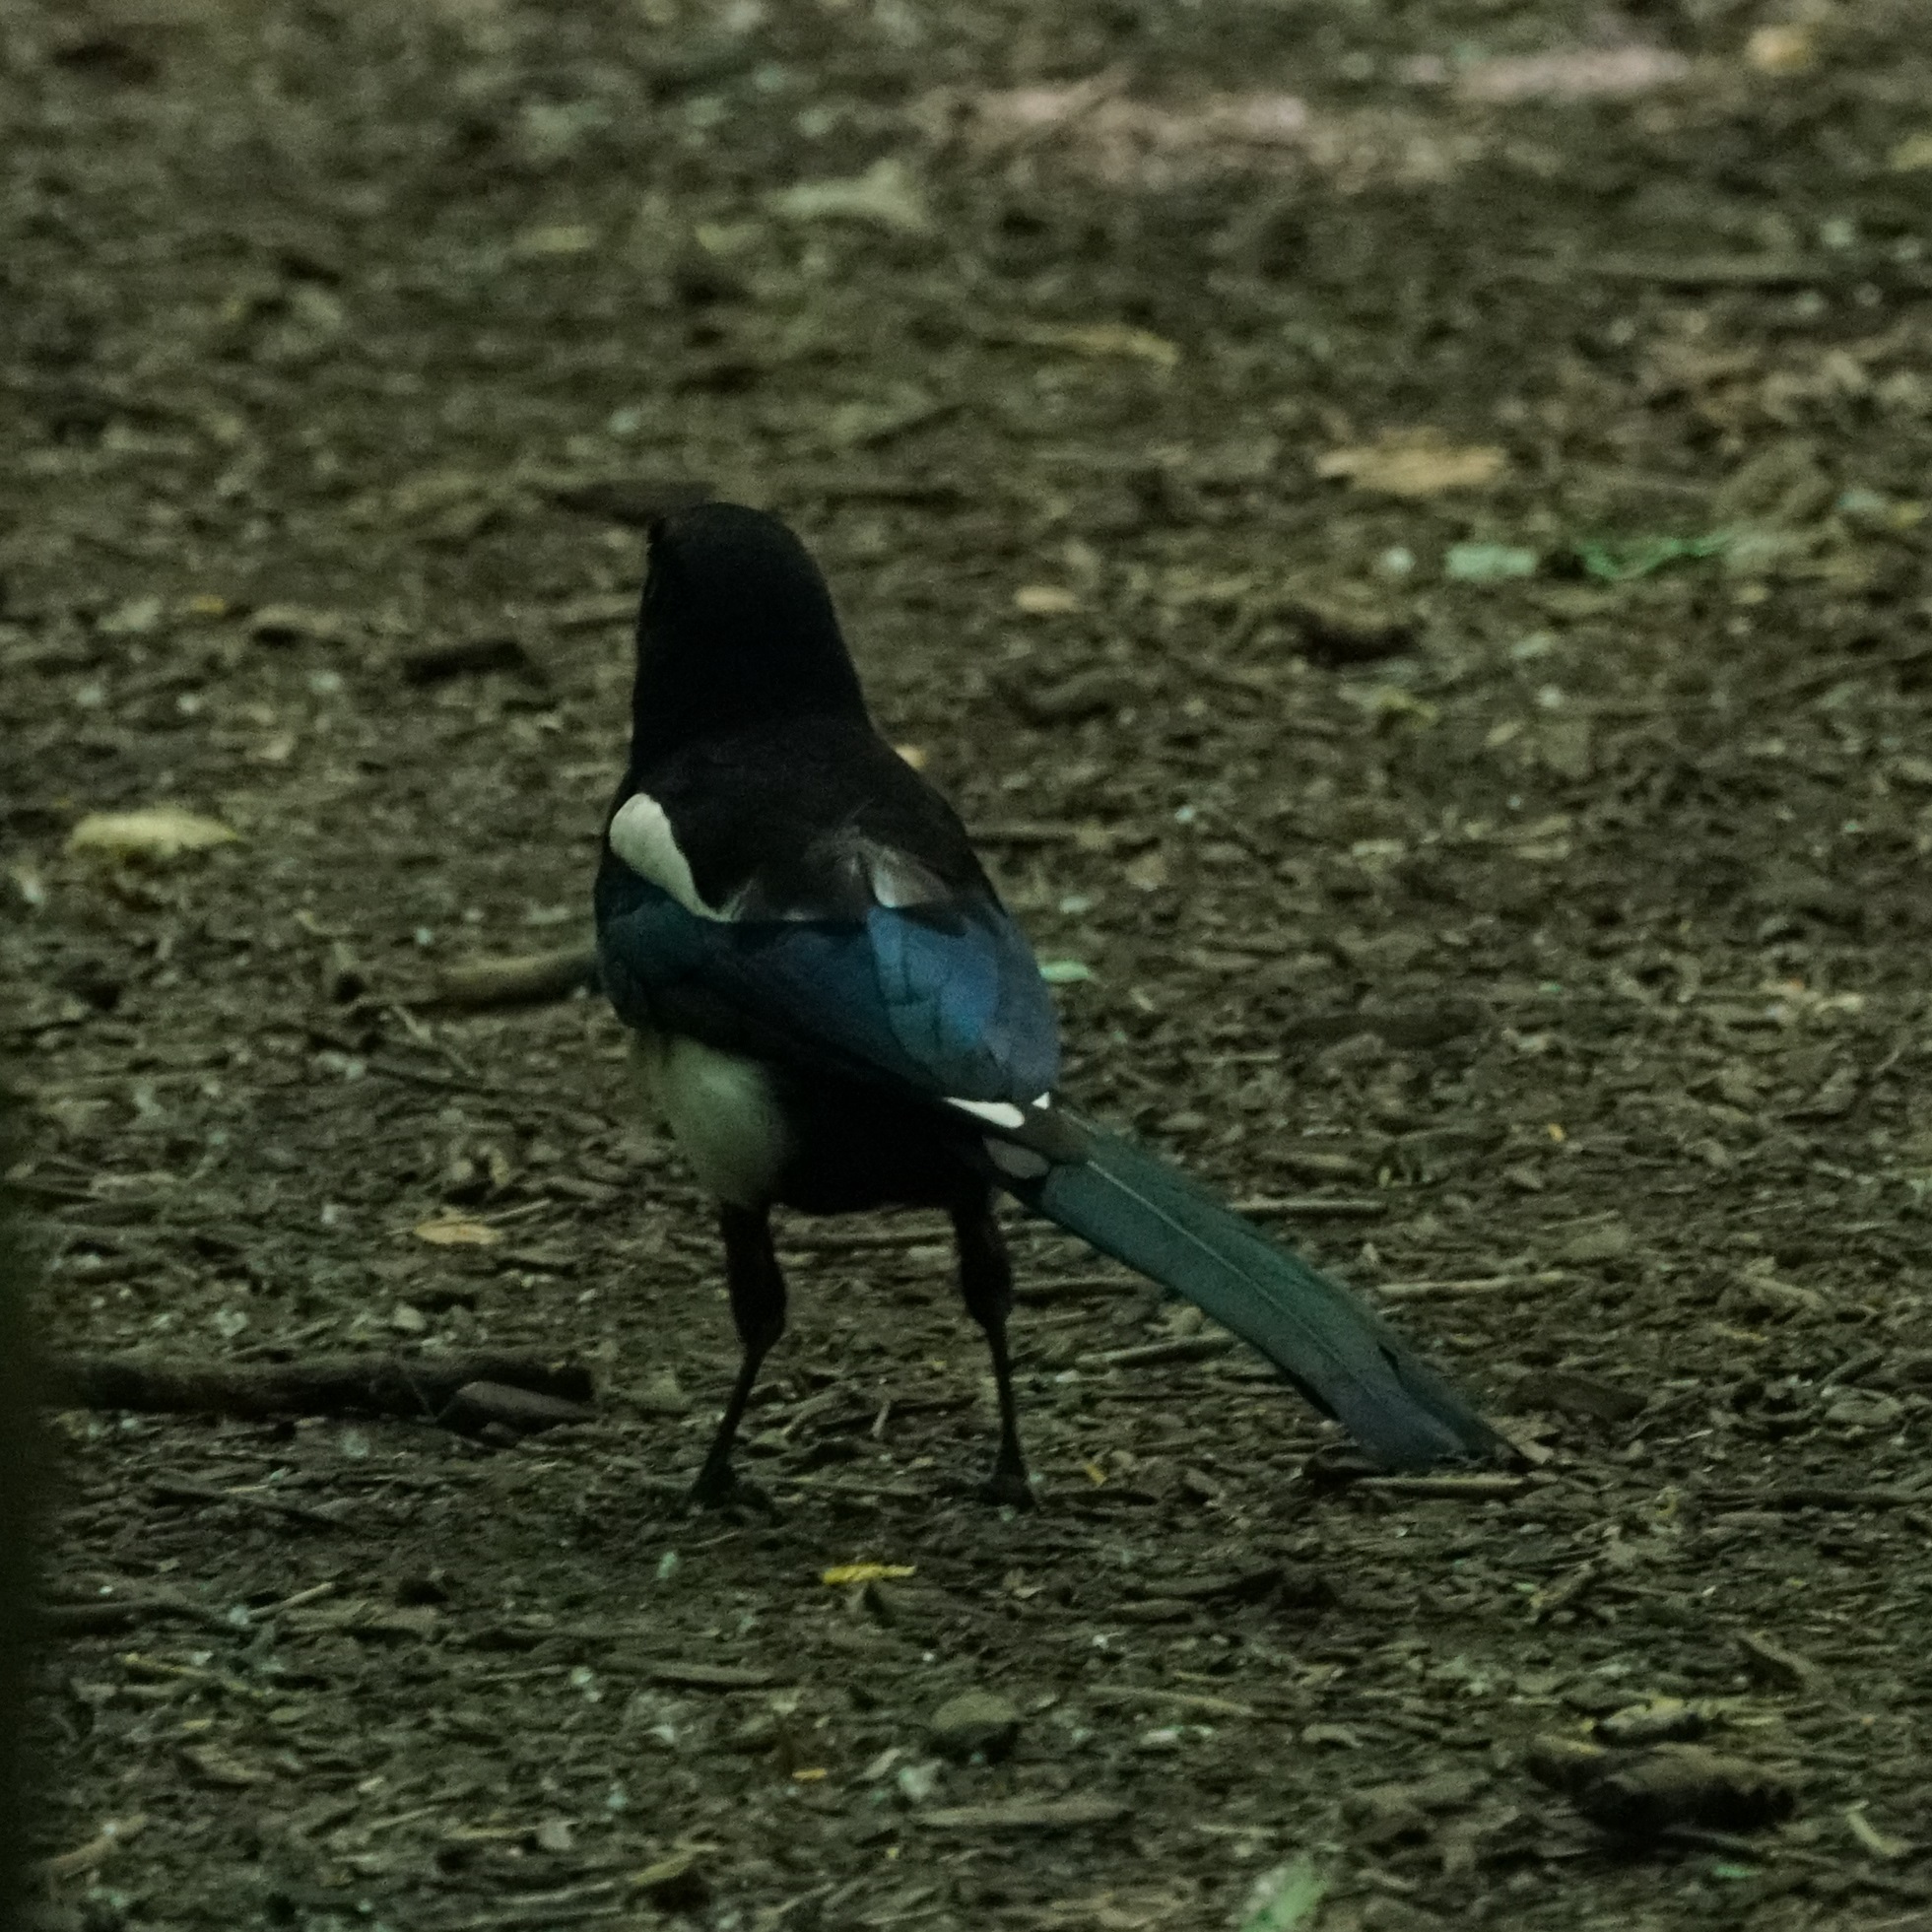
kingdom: Animalia
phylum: Chordata
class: Aves
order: Passeriformes
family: Corvidae
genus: Pica
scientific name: Pica pica
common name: Eurasian magpie
